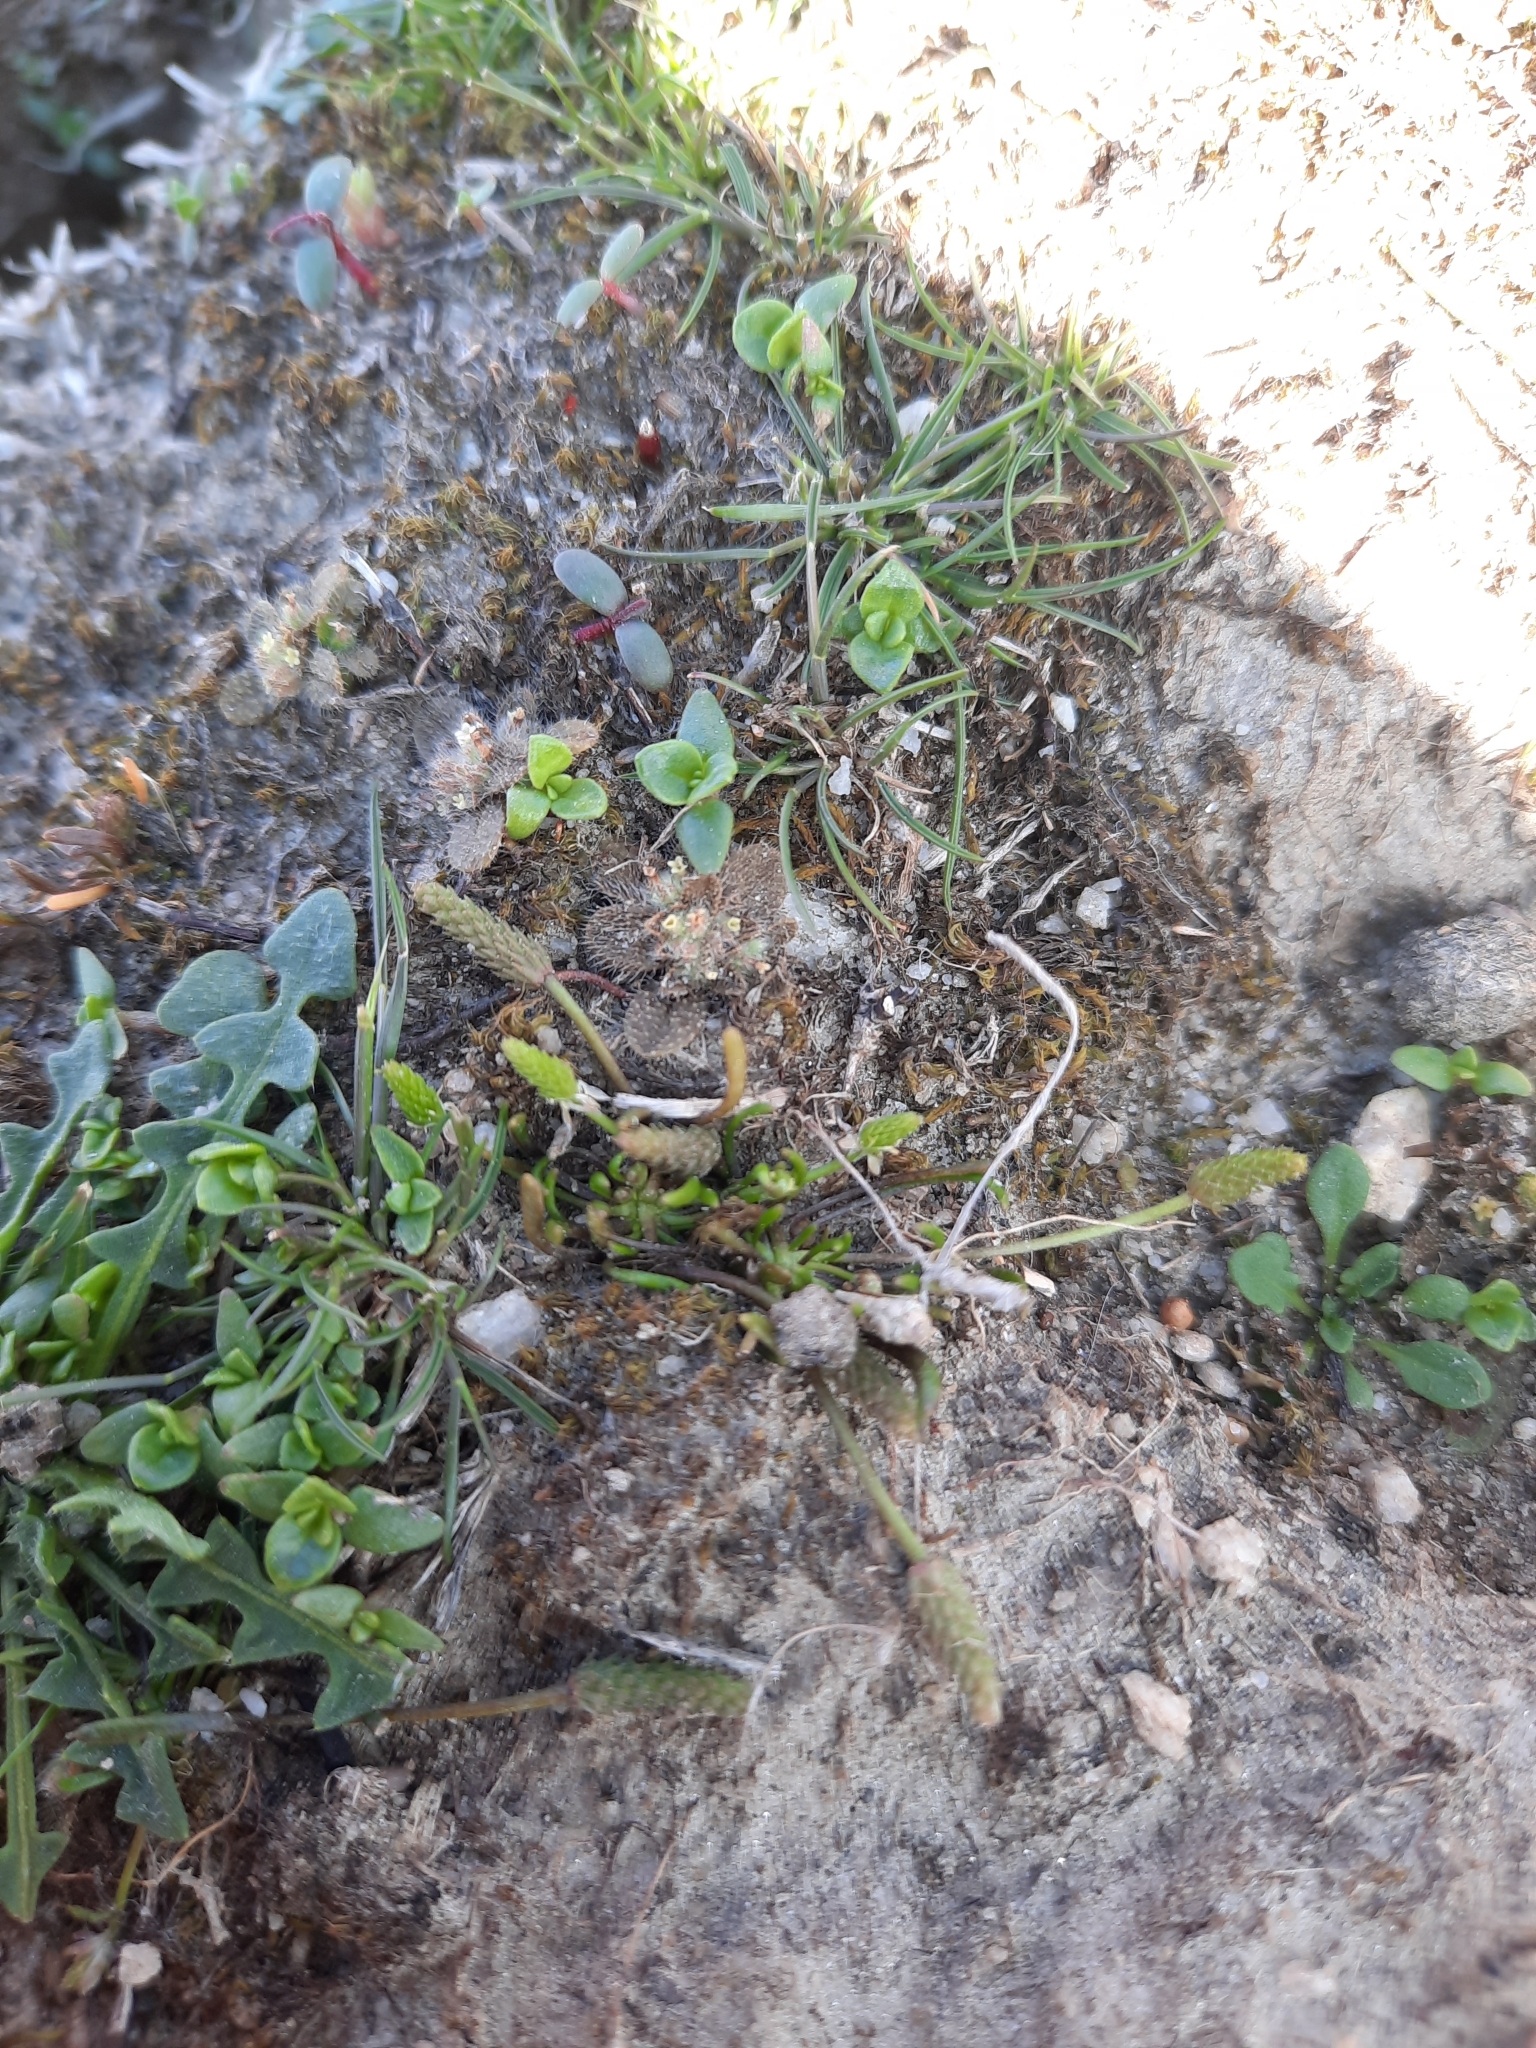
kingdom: Plantae
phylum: Tracheophyta
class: Magnoliopsida
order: Boraginales
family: Boraginaceae
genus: Myosotis
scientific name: Myosotis brevis
